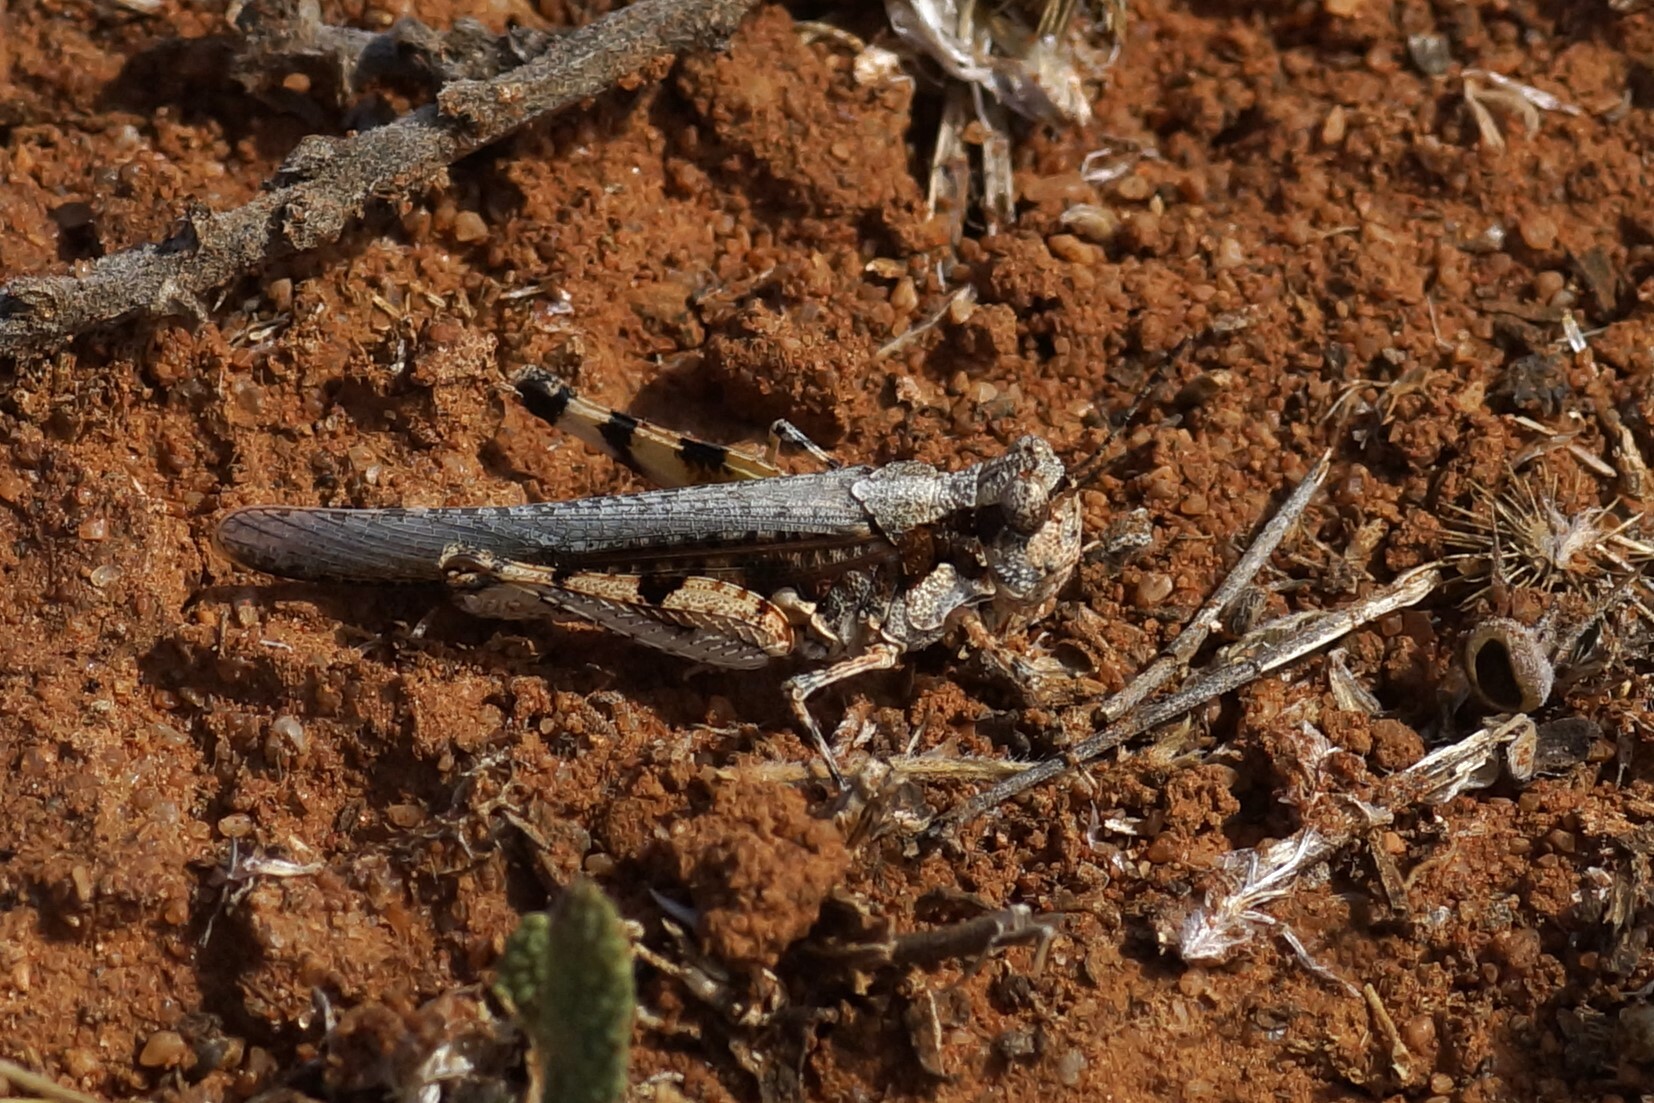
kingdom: Animalia
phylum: Arthropoda
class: Insecta
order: Orthoptera
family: Acrididae
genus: Pycnostictus
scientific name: Pycnostictus seriatus
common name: Common bandwing
